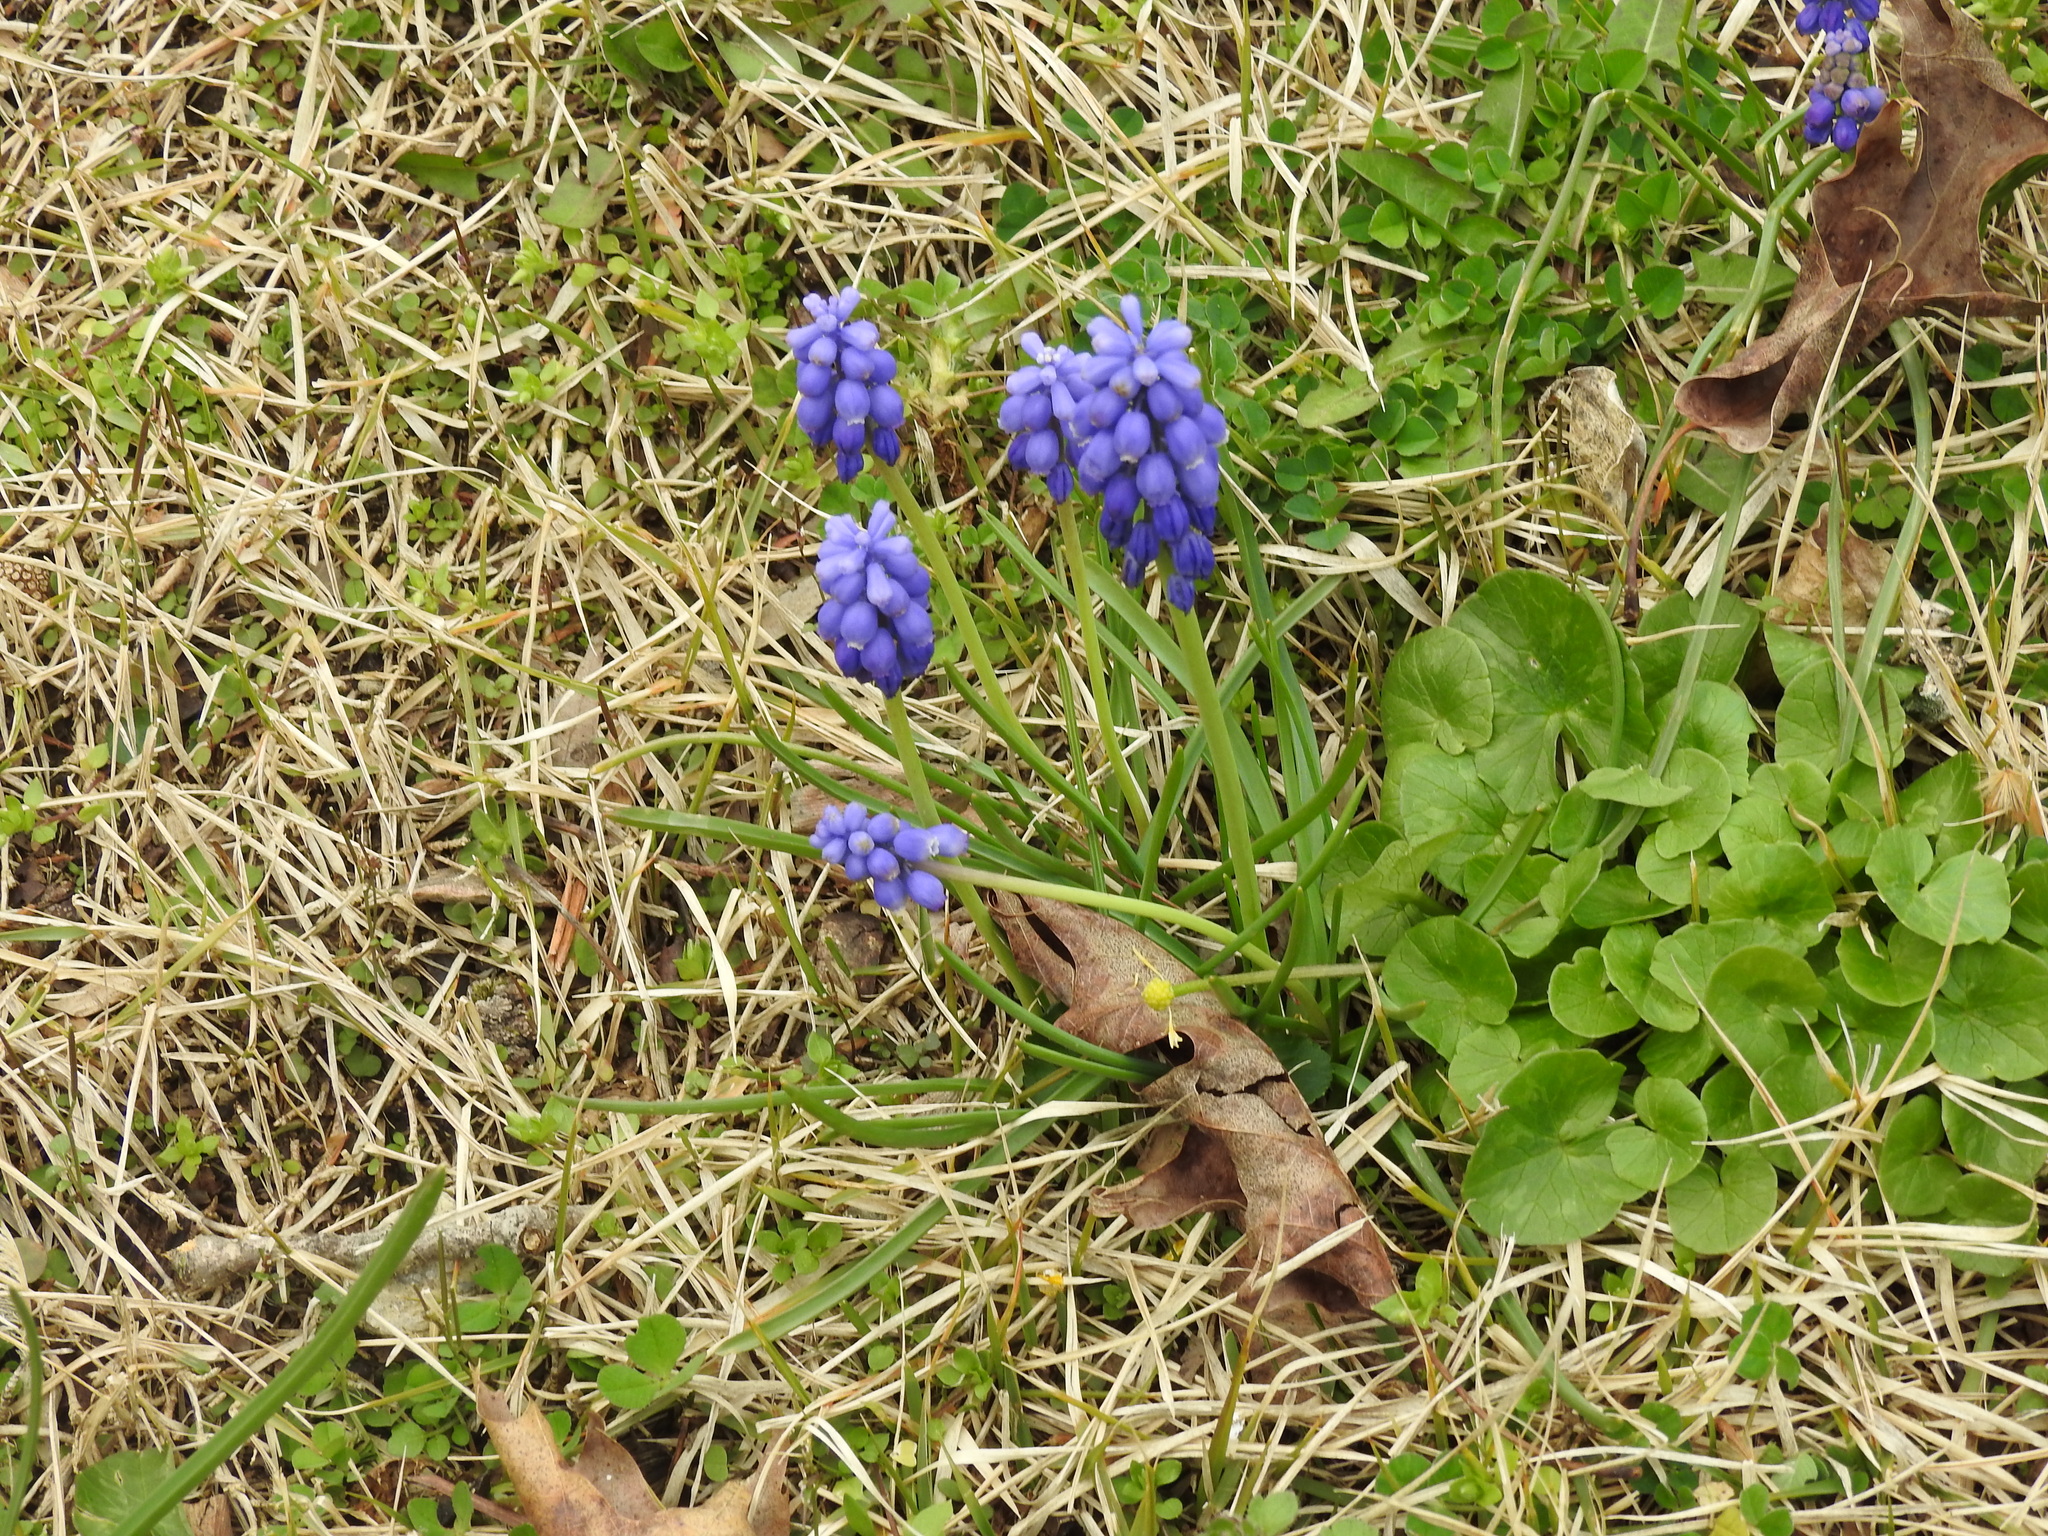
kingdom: Plantae
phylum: Tracheophyta
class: Liliopsida
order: Asparagales
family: Asparagaceae
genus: Muscari
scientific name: Muscari botryoides
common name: Compact grape-hyacinth
